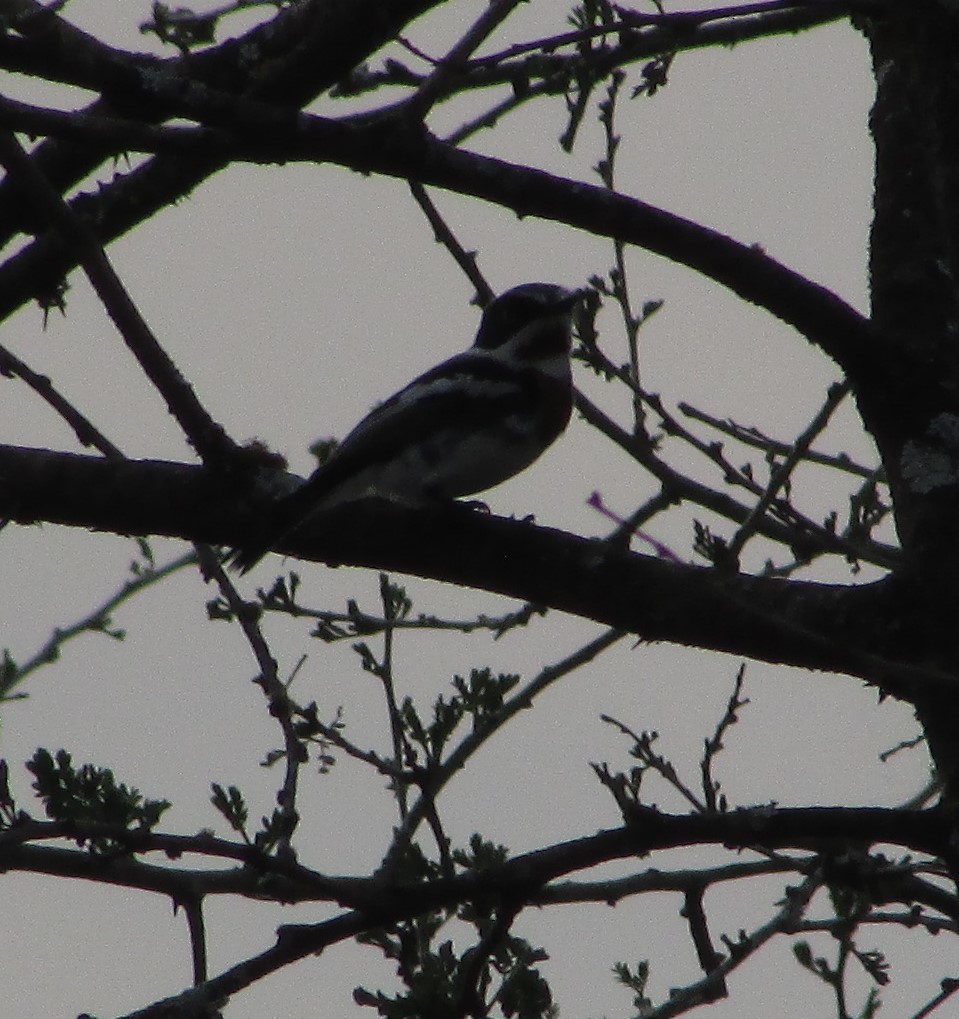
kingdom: Animalia
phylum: Chordata
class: Aves
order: Passeriformes
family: Platysteiridae
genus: Batis
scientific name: Batis molitor
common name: Chinspot batis
